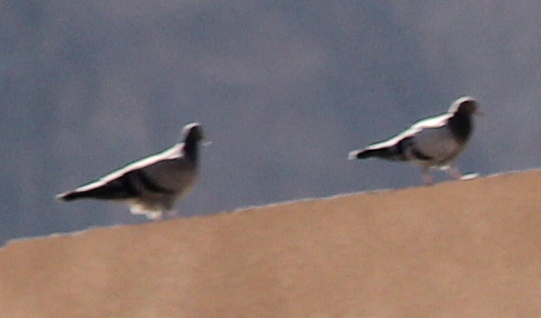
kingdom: Animalia
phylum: Chordata
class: Aves
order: Columbiformes
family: Columbidae
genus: Columba
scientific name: Columba livia
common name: Rock pigeon
